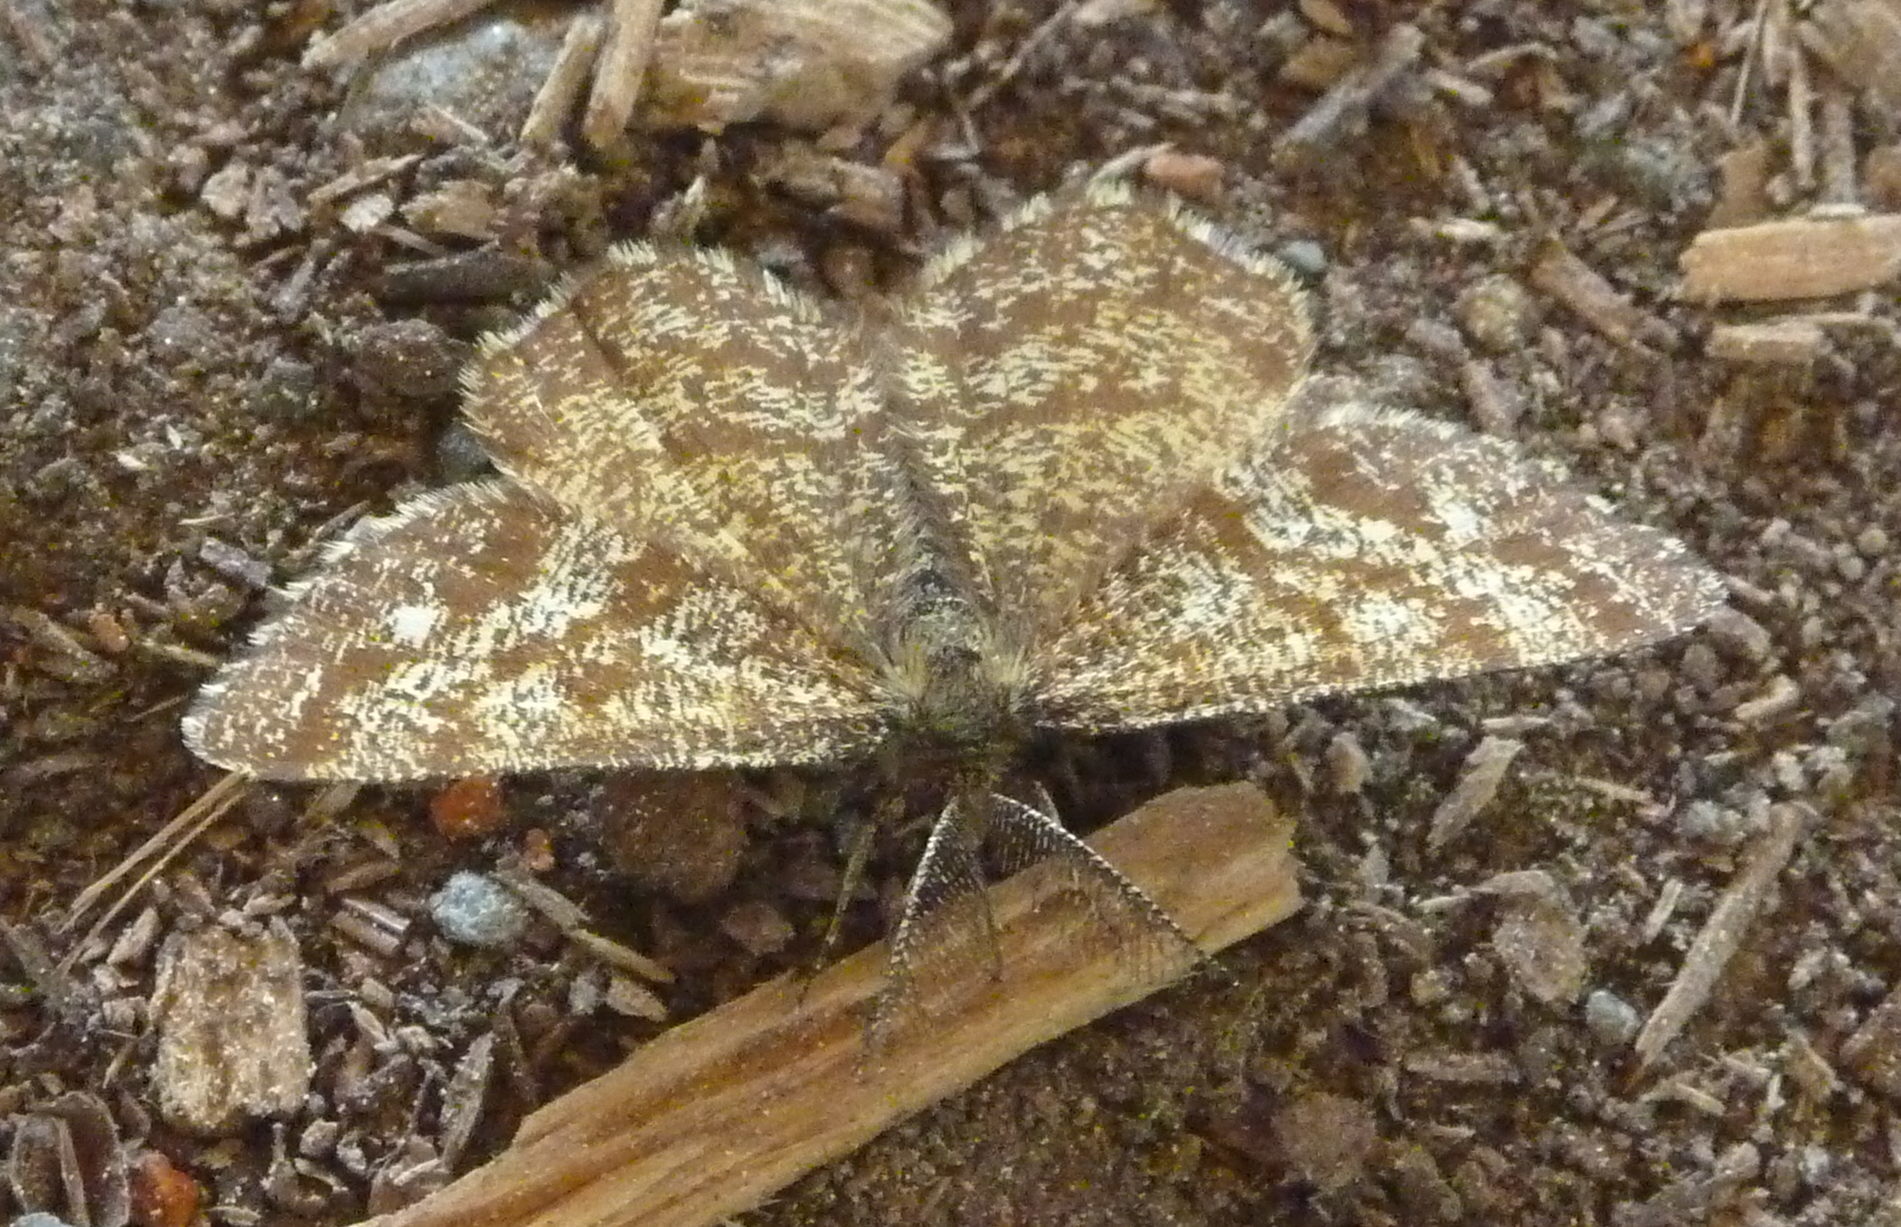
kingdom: Animalia
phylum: Arthropoda
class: Insecta
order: Lepidoptera
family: Geometridae
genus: Ematurga
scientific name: Ematurga atomaria
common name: Common heath
